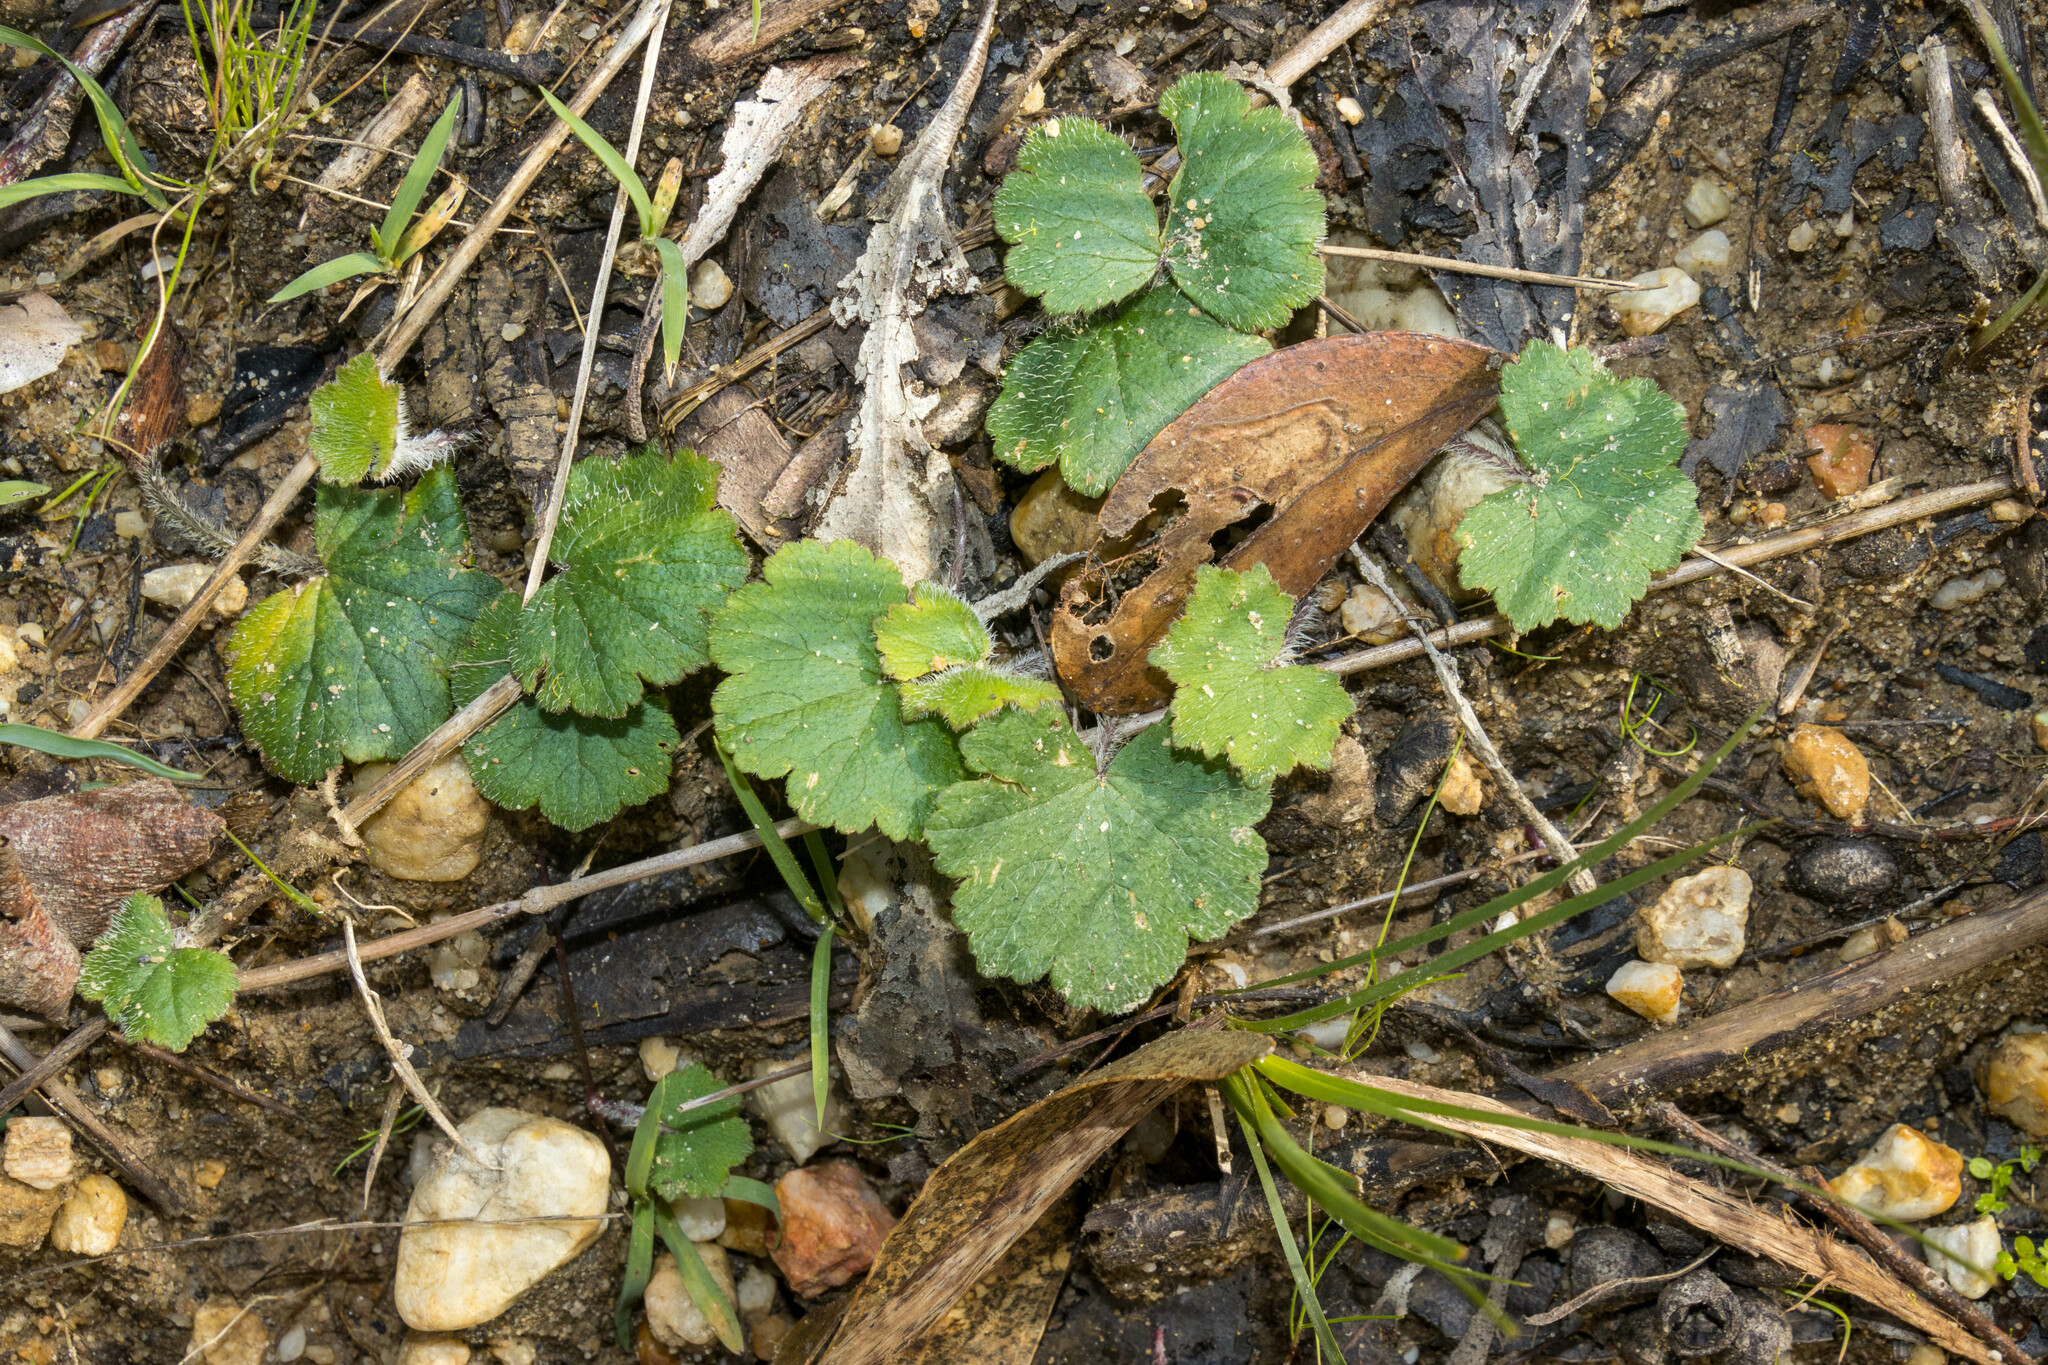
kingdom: Plantae
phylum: Tracheophyta
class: Magnoliopsida
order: Apiales
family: Araliaceae
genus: Hydrocotyle
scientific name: Hydrocotyle laxiflora
